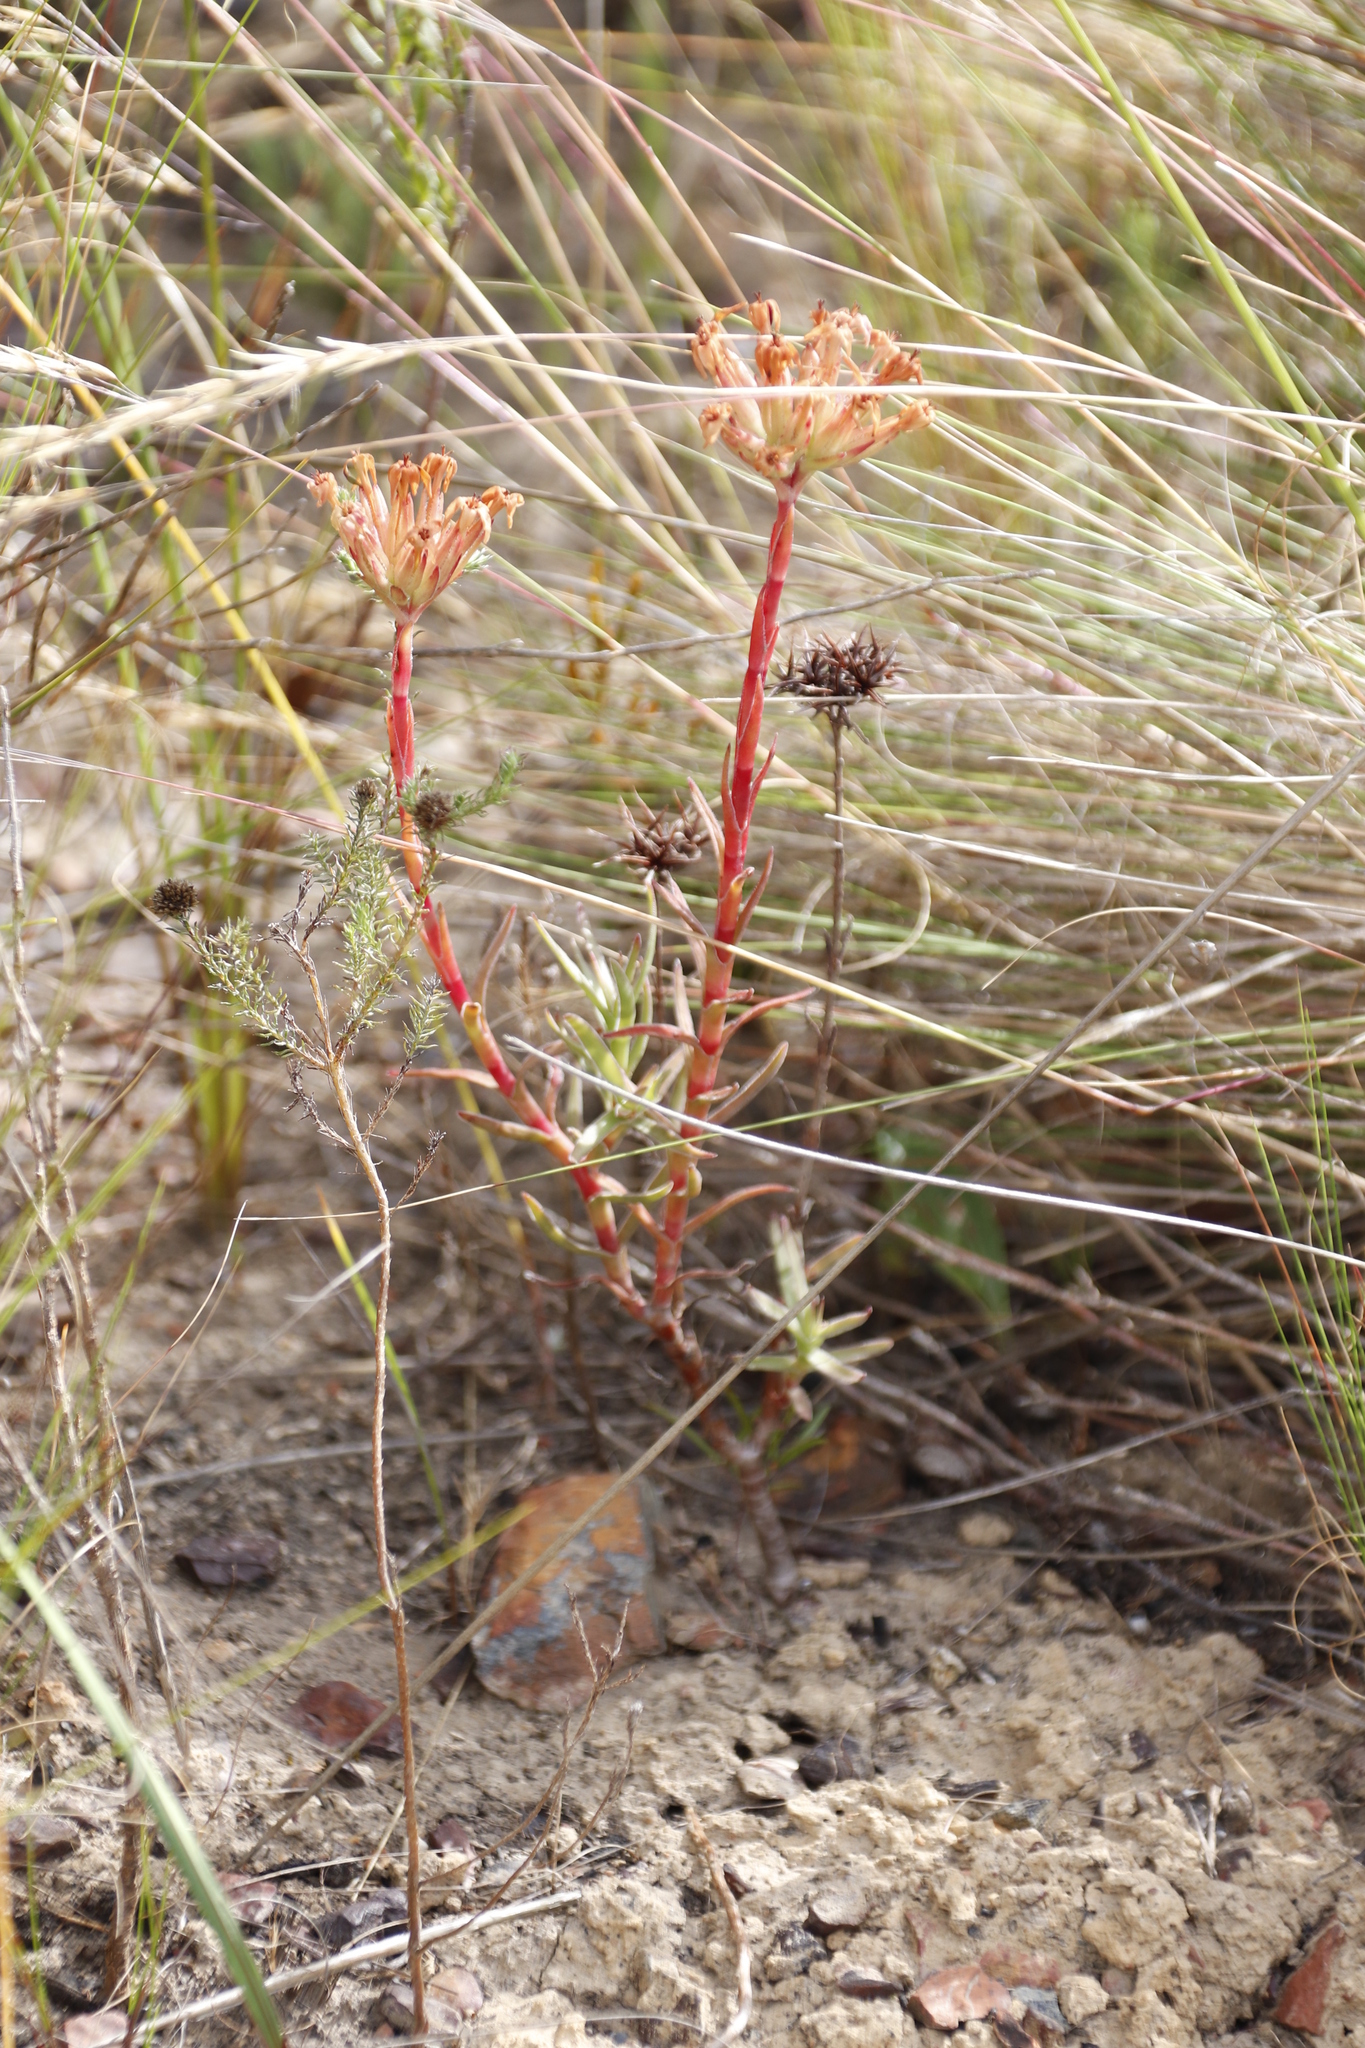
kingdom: Plantae
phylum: Tracheophyta
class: Magnoliopsida
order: Saxifragales
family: Crassulaceae
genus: Crassula
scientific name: Crassula fascicularis
